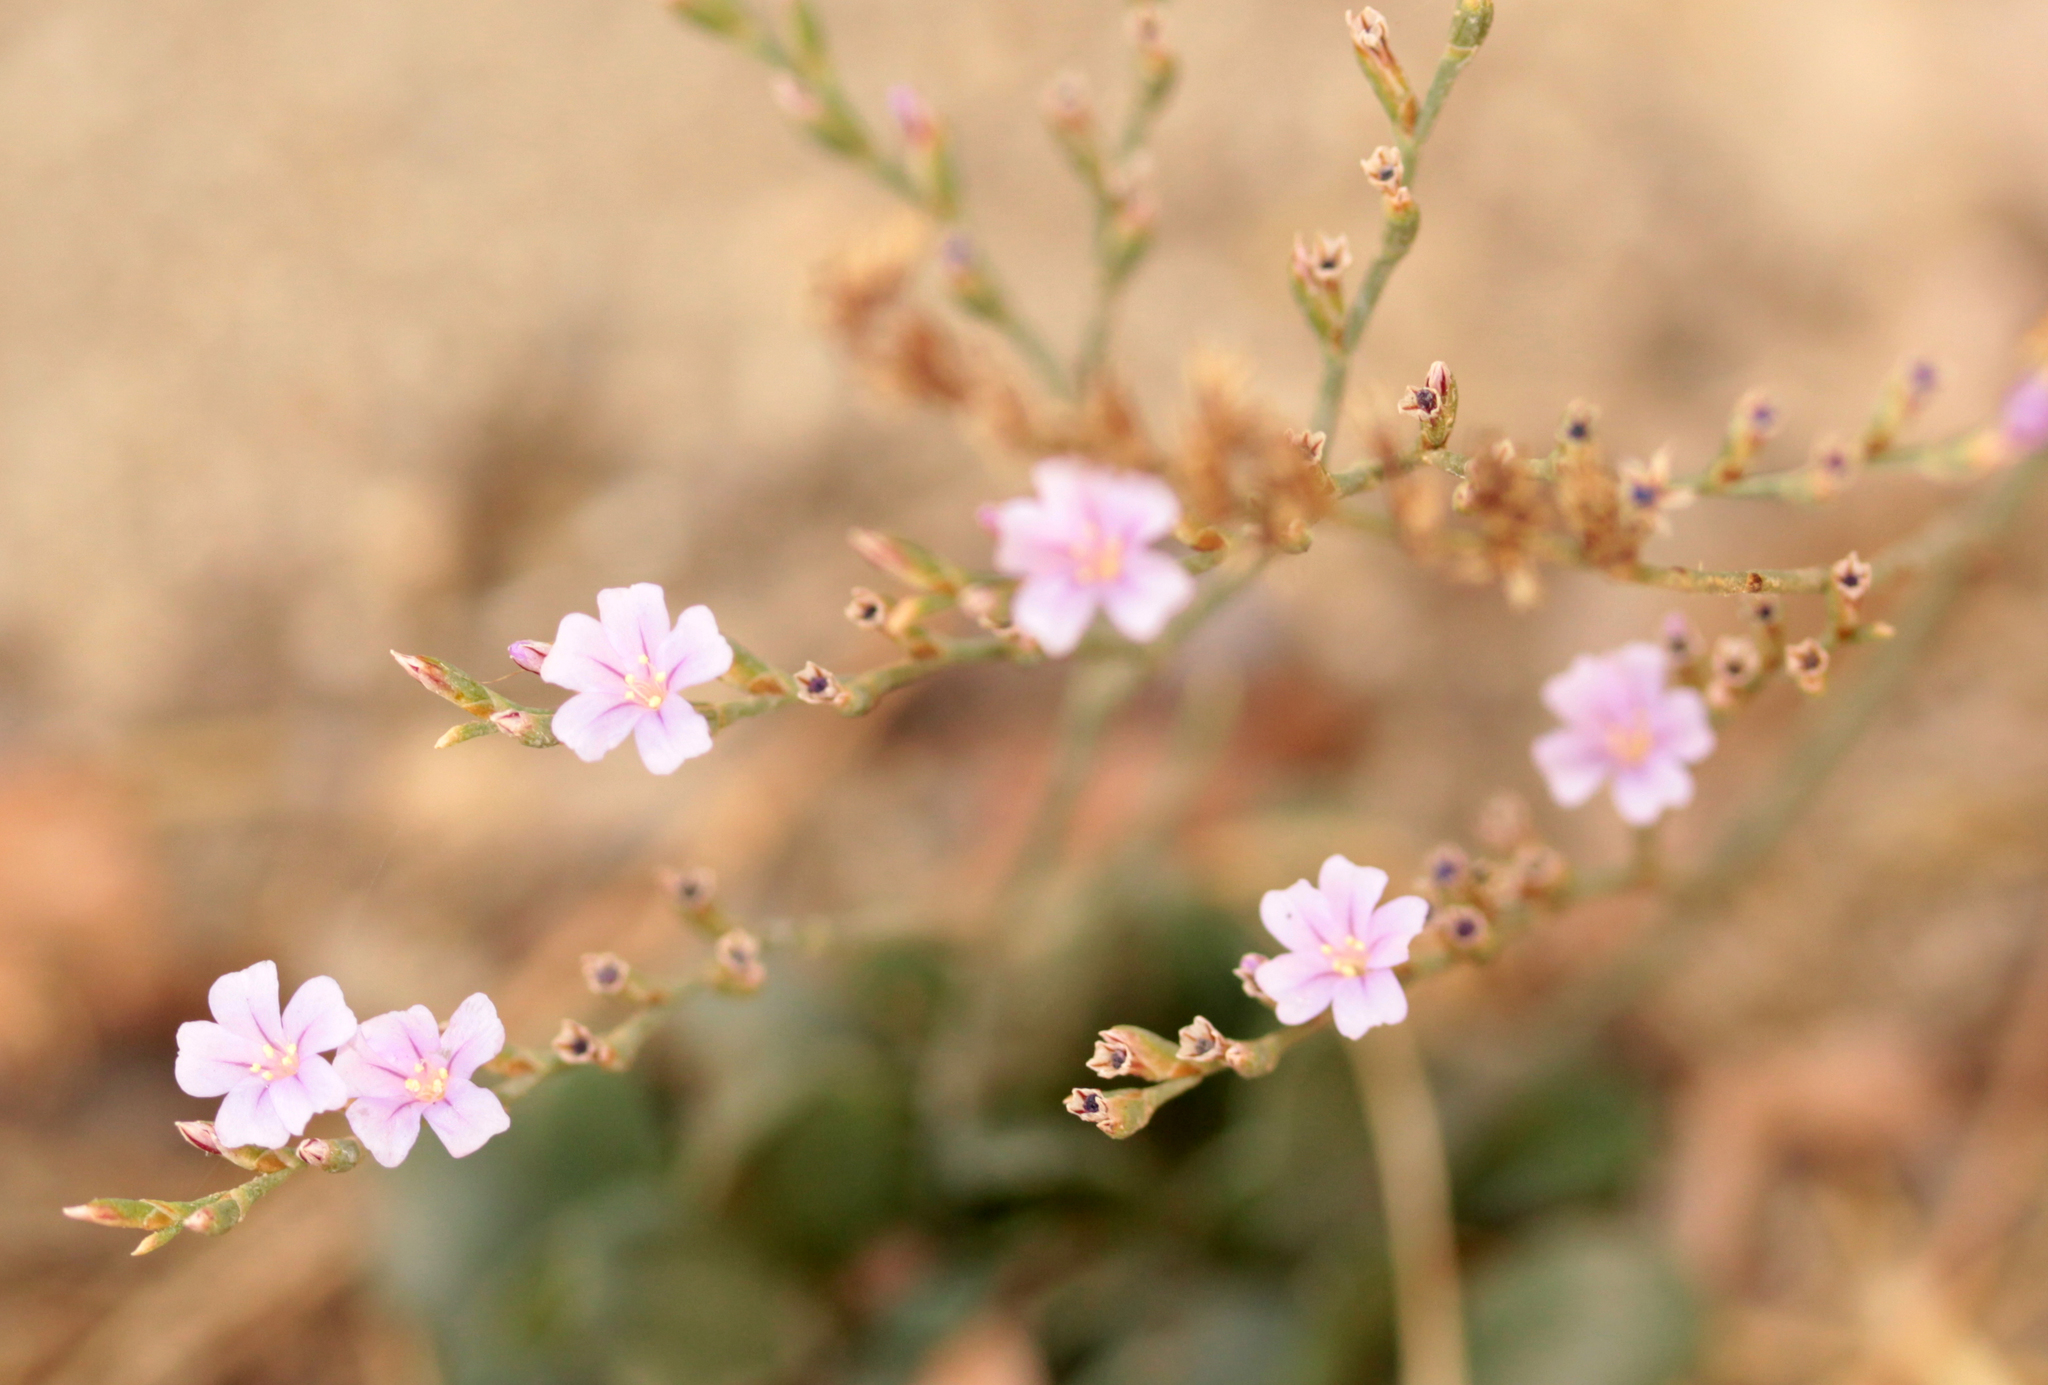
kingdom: Plantae
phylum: Tracheophyta
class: Magnoliopsida
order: Caryophyllales
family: Plumbaginaceae
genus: Limonium
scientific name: Limonium duriusculum
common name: European sea lavendar
